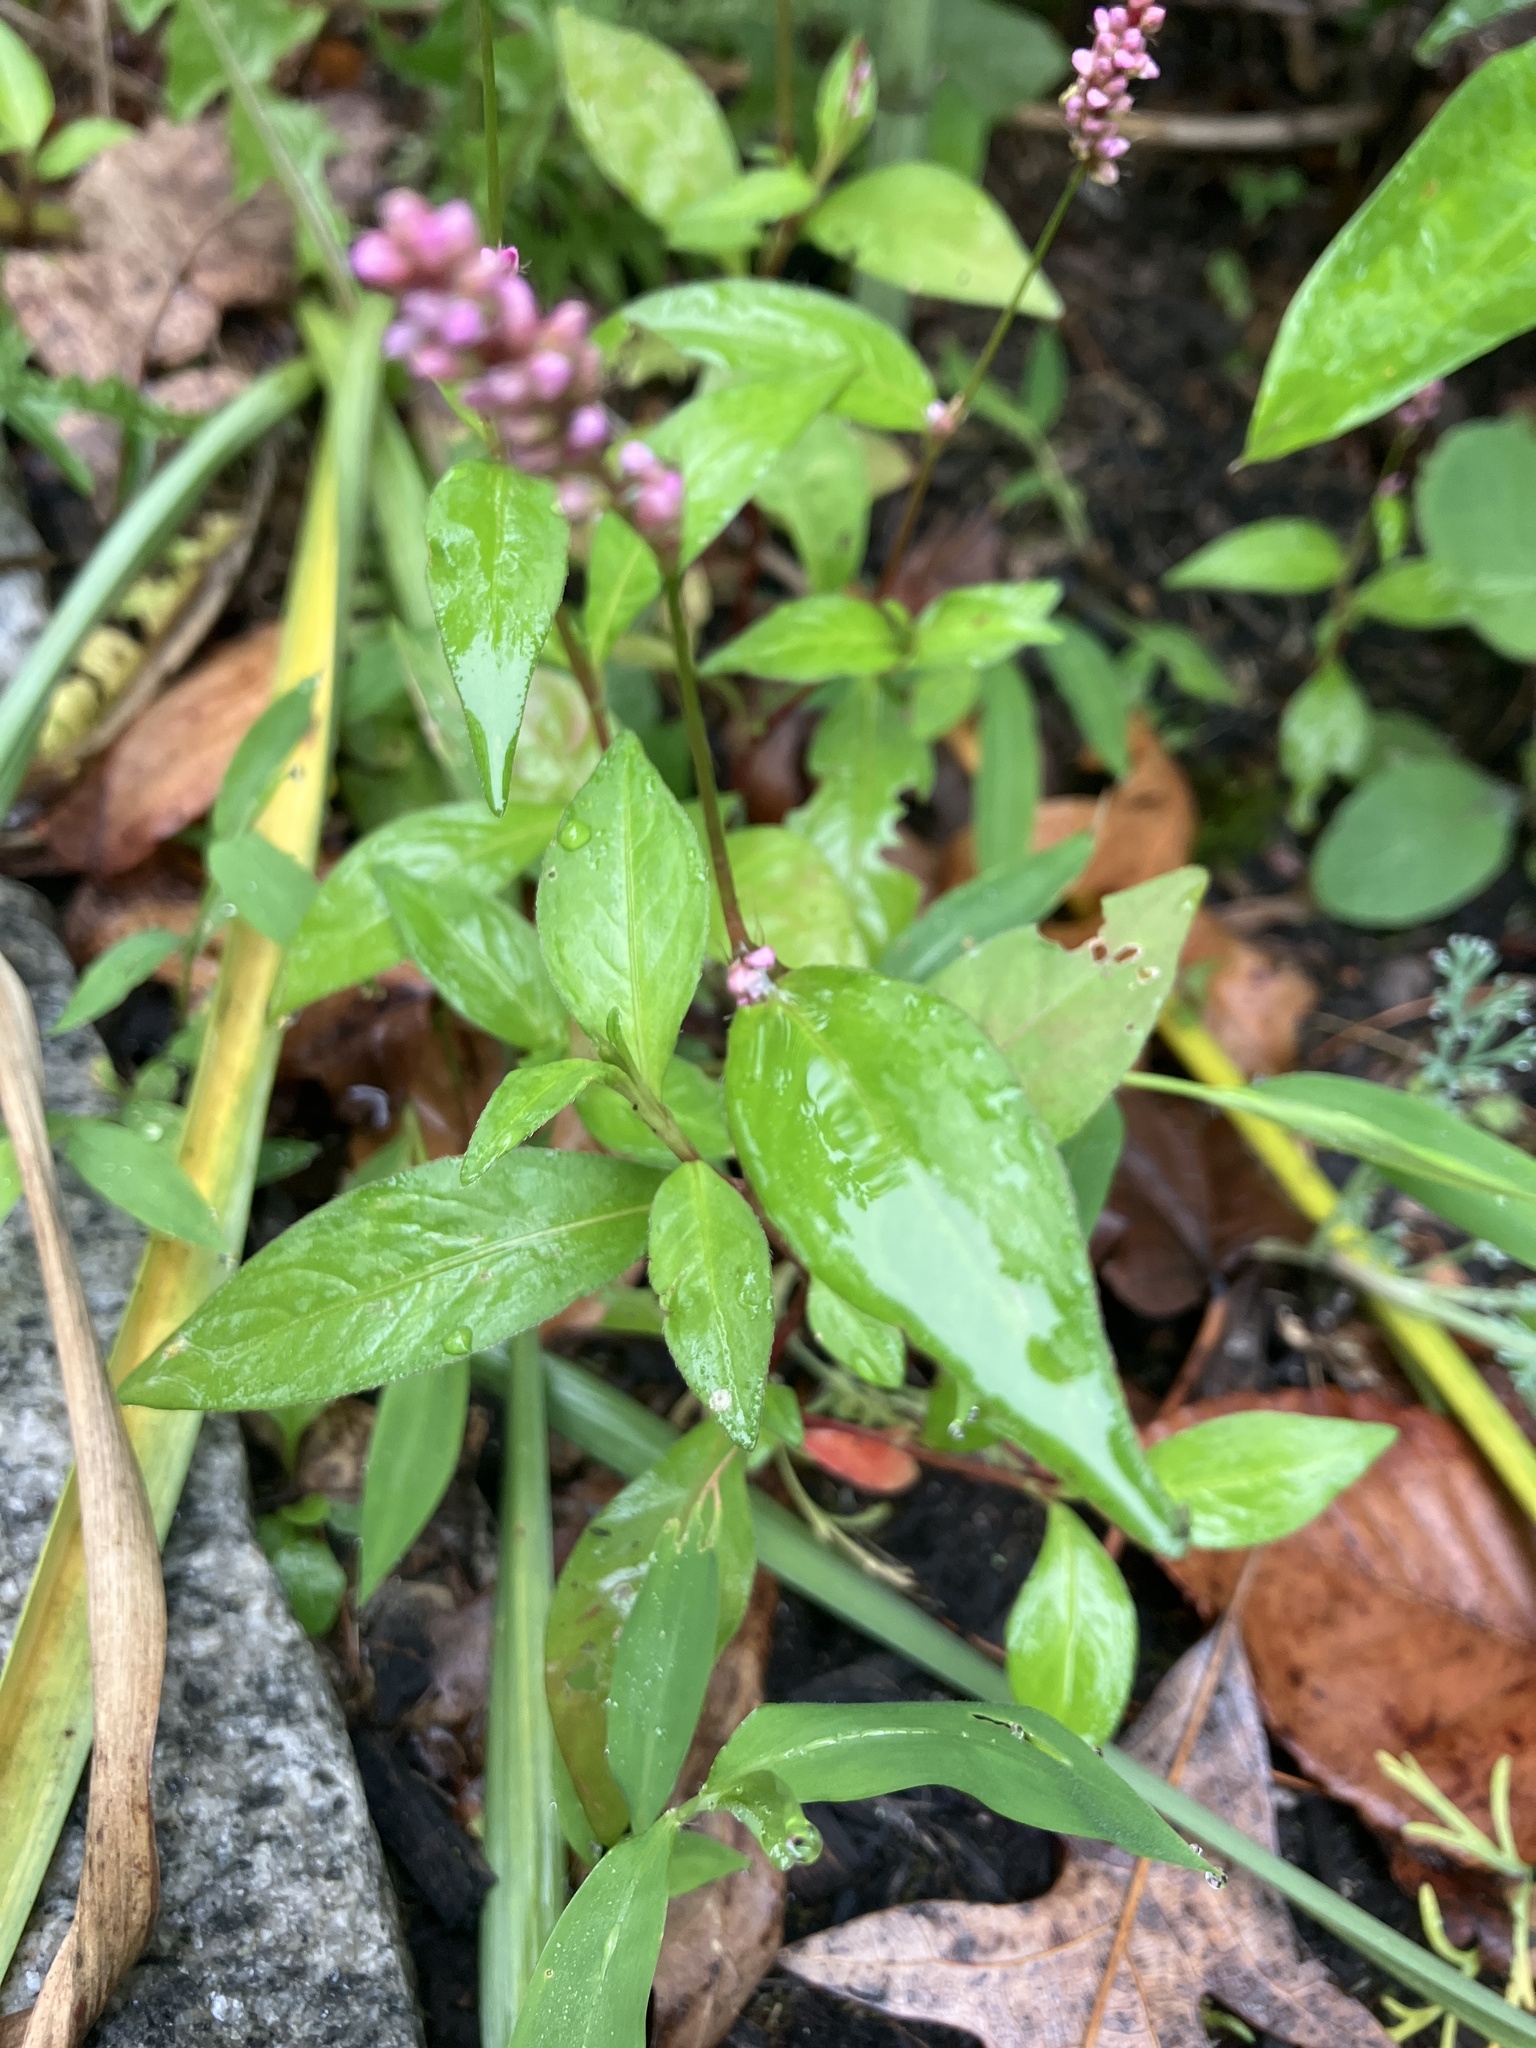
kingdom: Plantae
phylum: Tracheophyta
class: Magnoliopsida
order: Caryophyllales
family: Polygonaceae
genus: Persicaria
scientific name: Persicaria longiseta
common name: Bristly lady's-thumb
